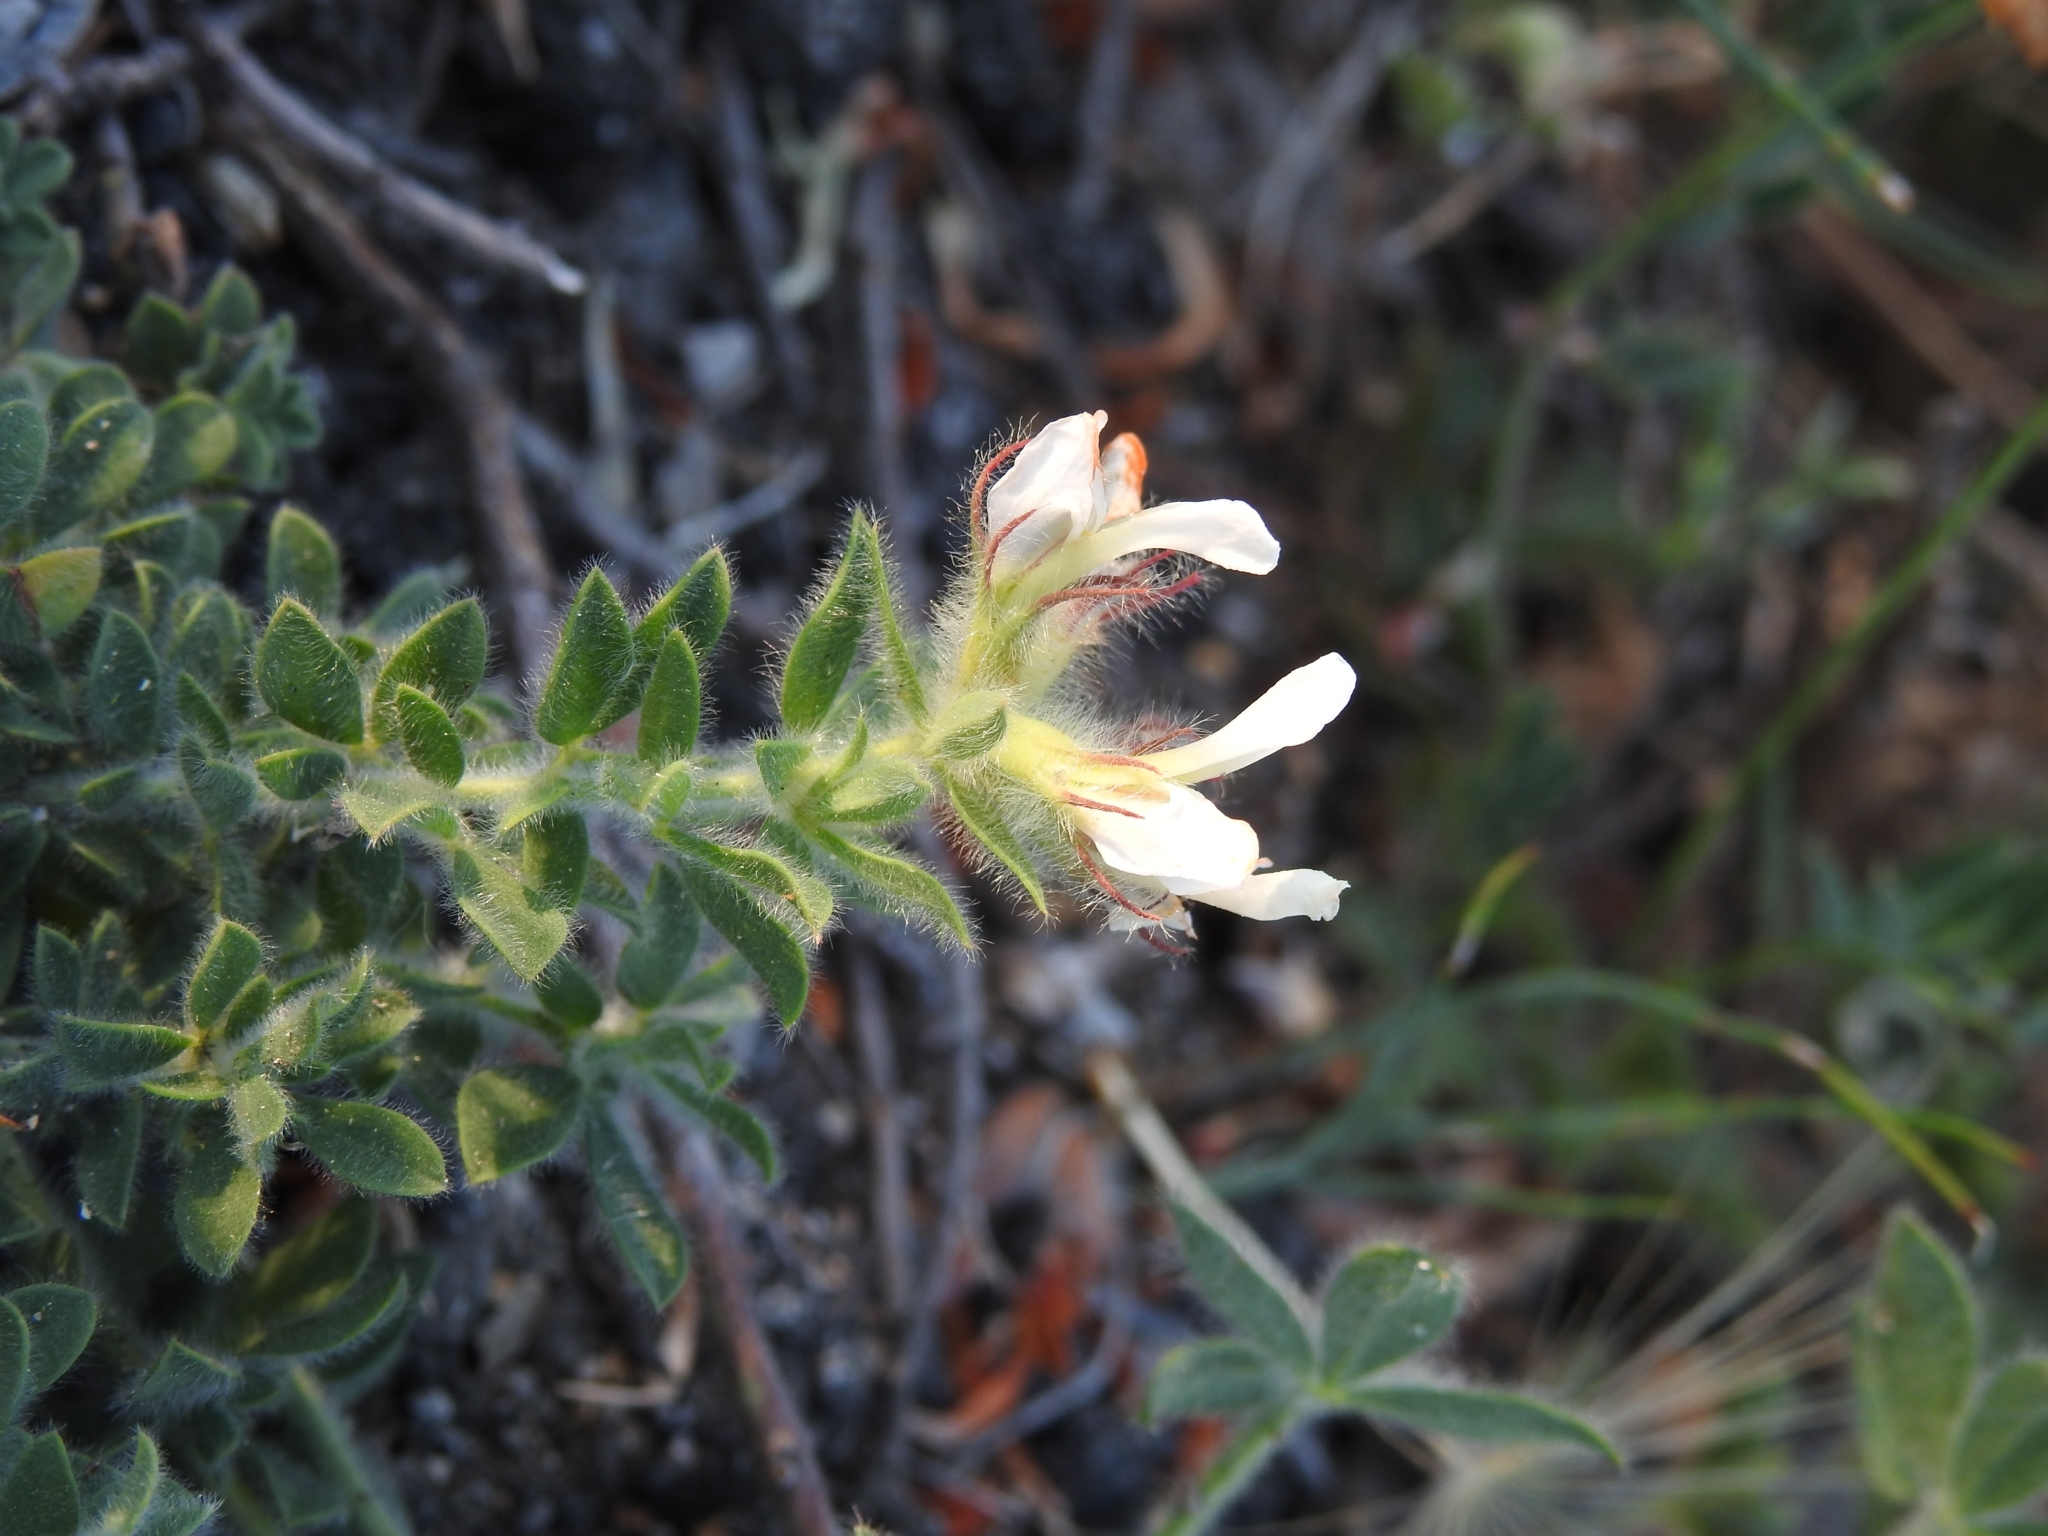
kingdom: Plantae
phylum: Tracheophyta
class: Magnoliopsida
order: Fabales
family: Fabaceae
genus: Lotus
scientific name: Lotus hirsutus
